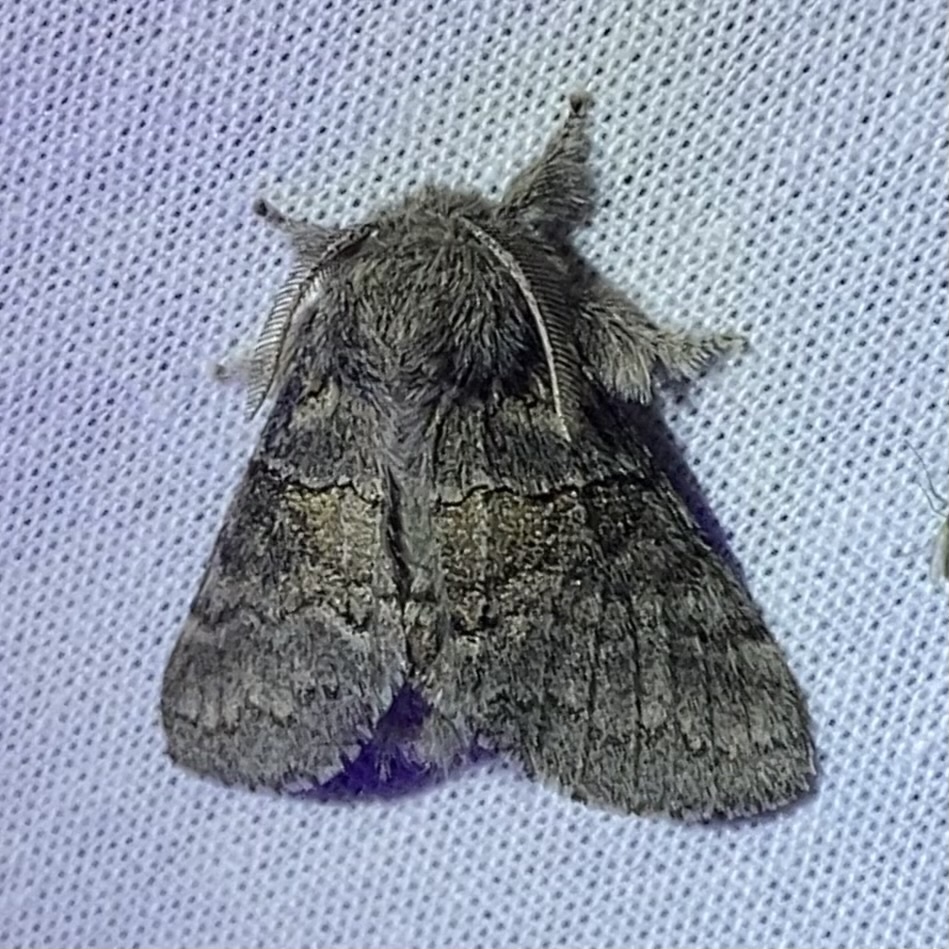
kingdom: Animalia
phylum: Arthropoda
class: Insecta
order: Lepidoptera
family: Notodontidae
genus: Gluphisia
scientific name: Gluphisia septentrionis
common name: Common gluphisia
